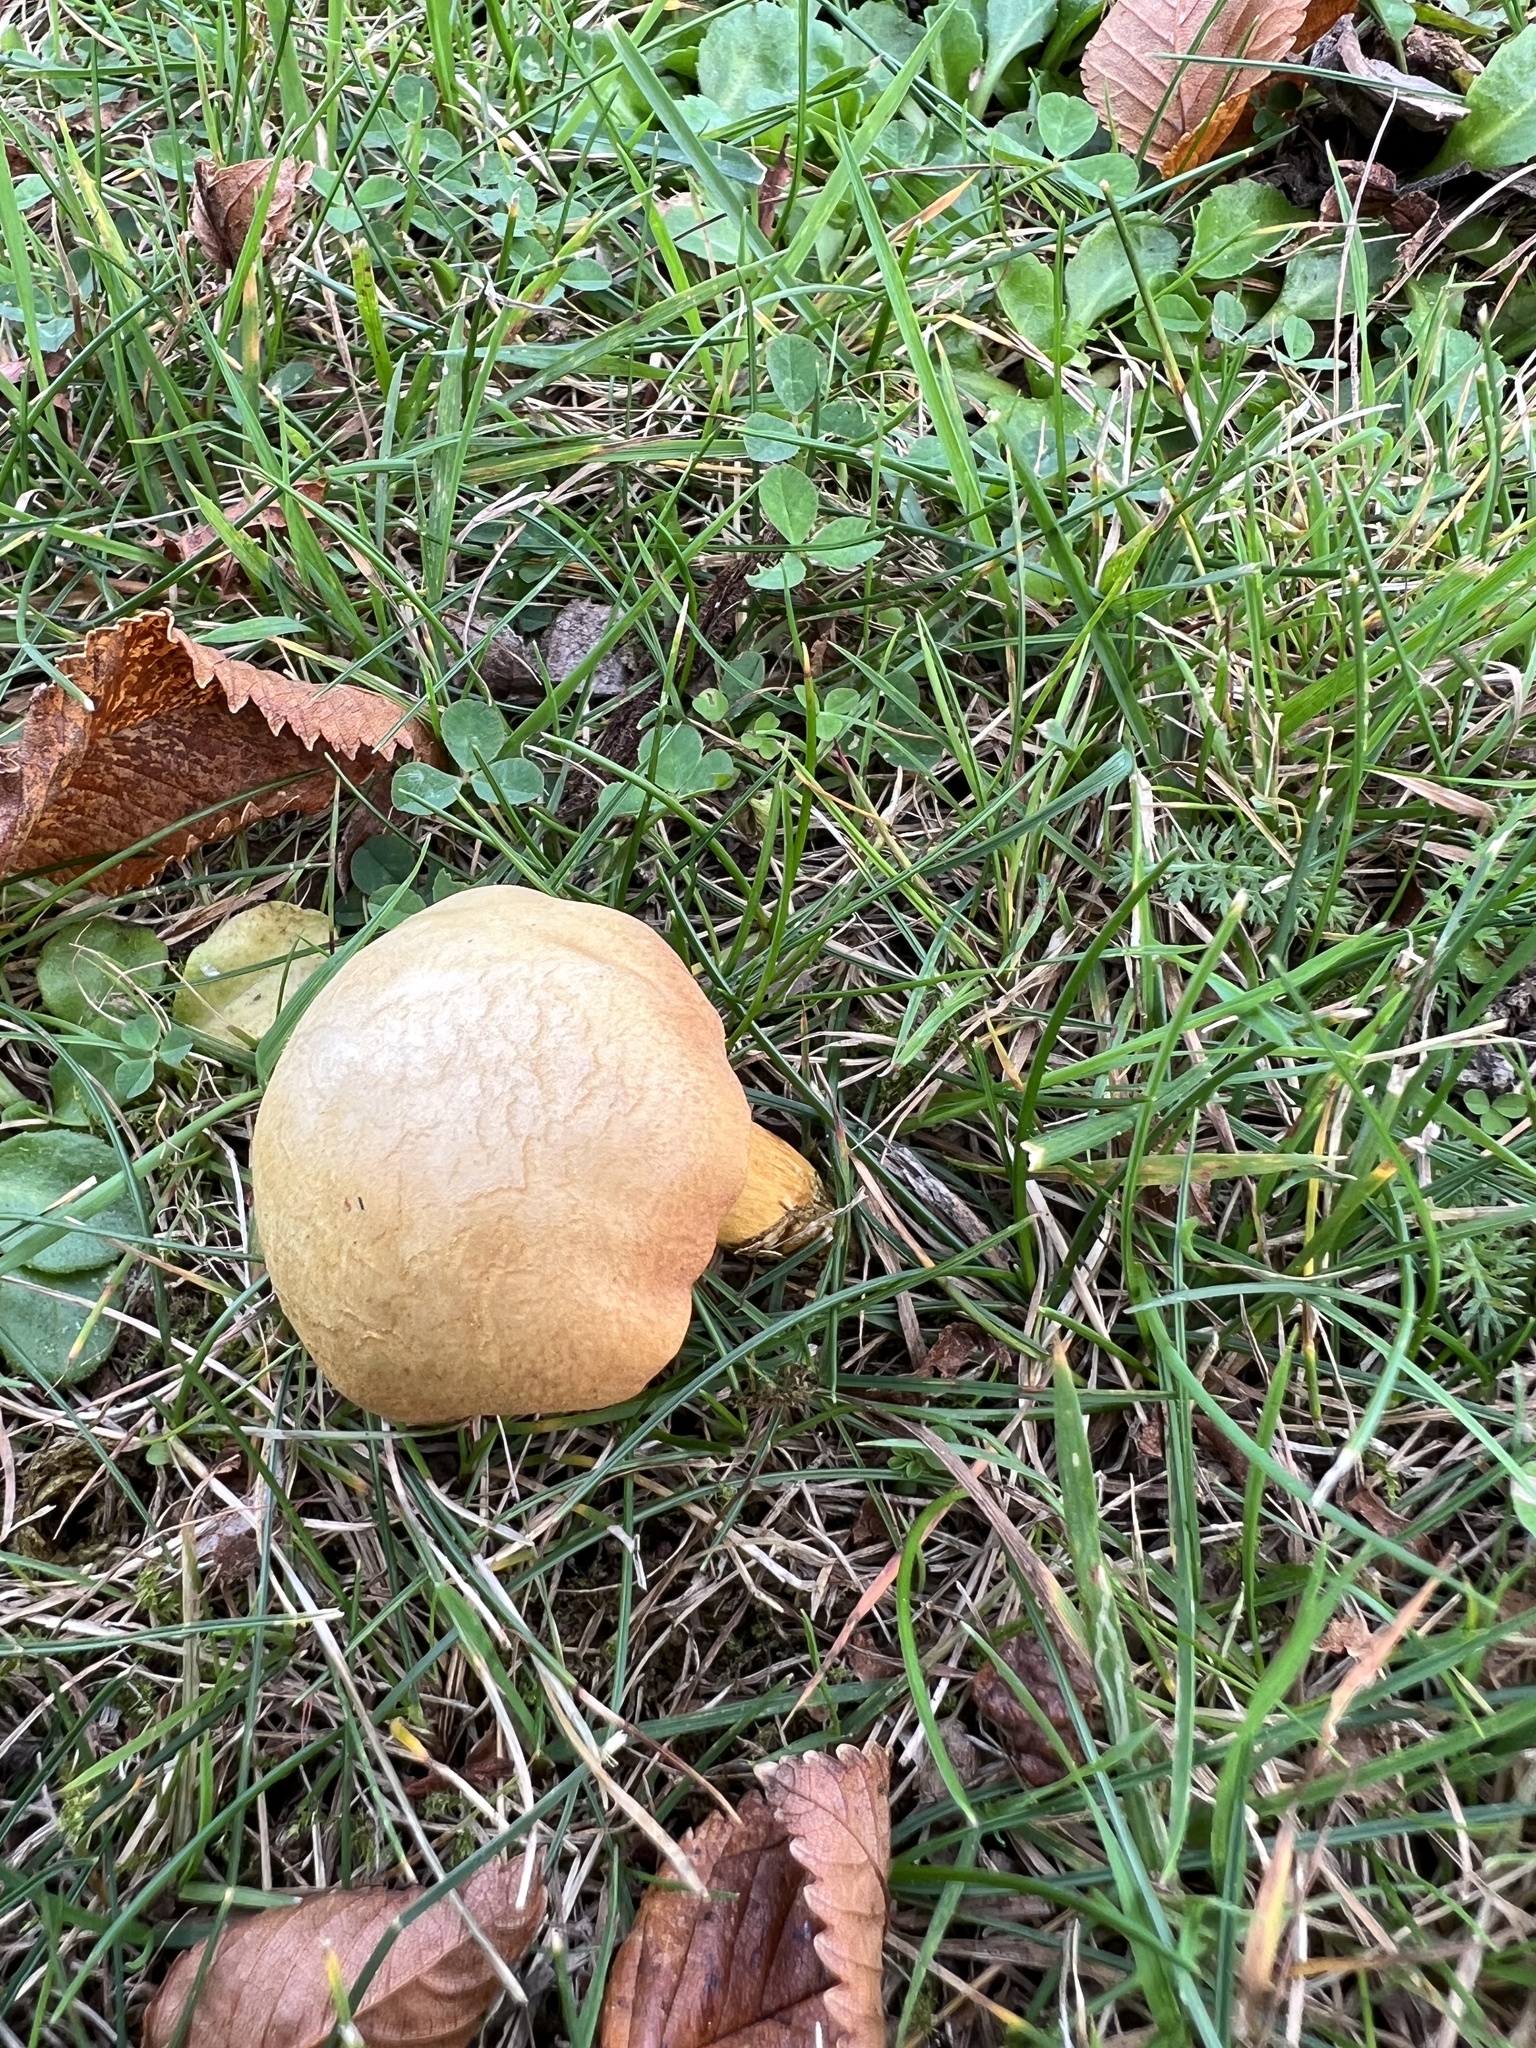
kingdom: Fungi
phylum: Basidiomycota
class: Agaricomycetes
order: Boletales
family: Boletaceae
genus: Chalciporus
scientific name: Chalciporus piperatus
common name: Peppery bolete
